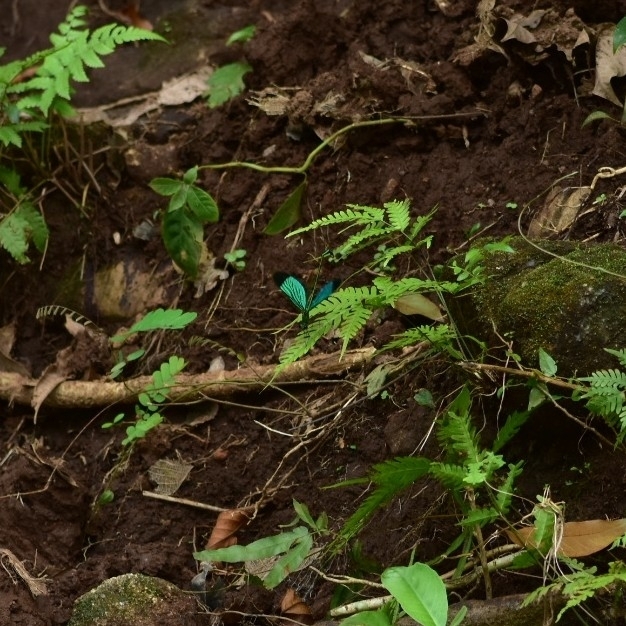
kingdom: Animalia
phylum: Arthropoda
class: Insecta
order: Odonata
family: Calopterygidae
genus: Neurobasis
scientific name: Neurobasis chinensis
